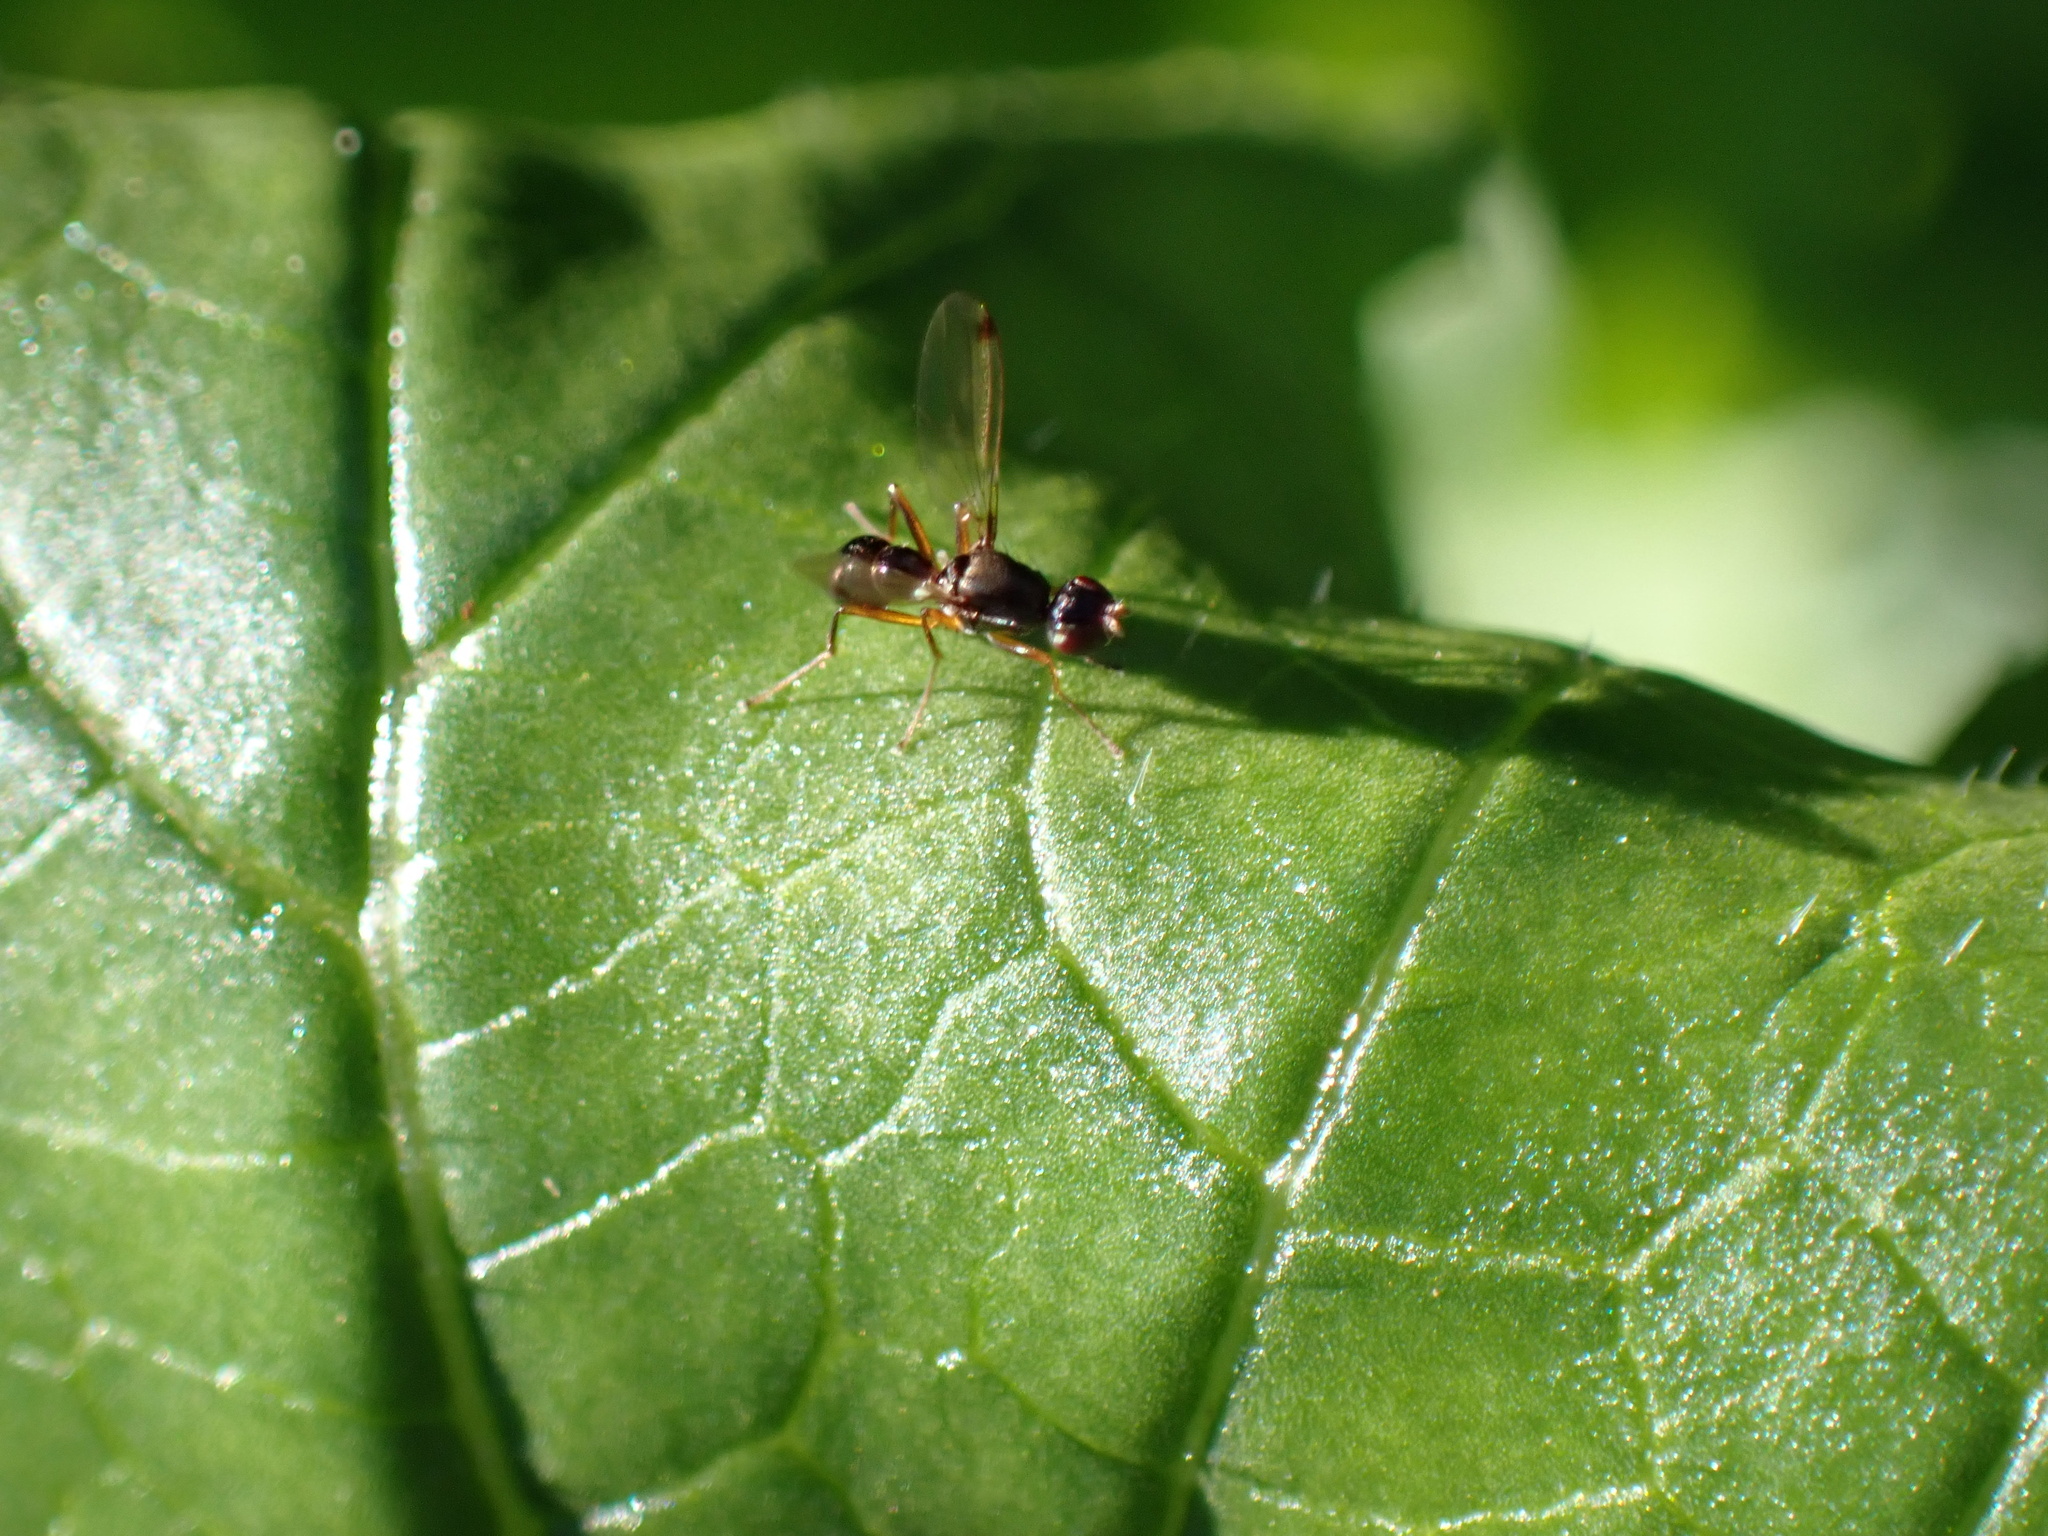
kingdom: Animalia
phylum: Arthropoda
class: Insecta
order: Diptera
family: Sepsidae
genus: Sepsis
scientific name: Sepsis
